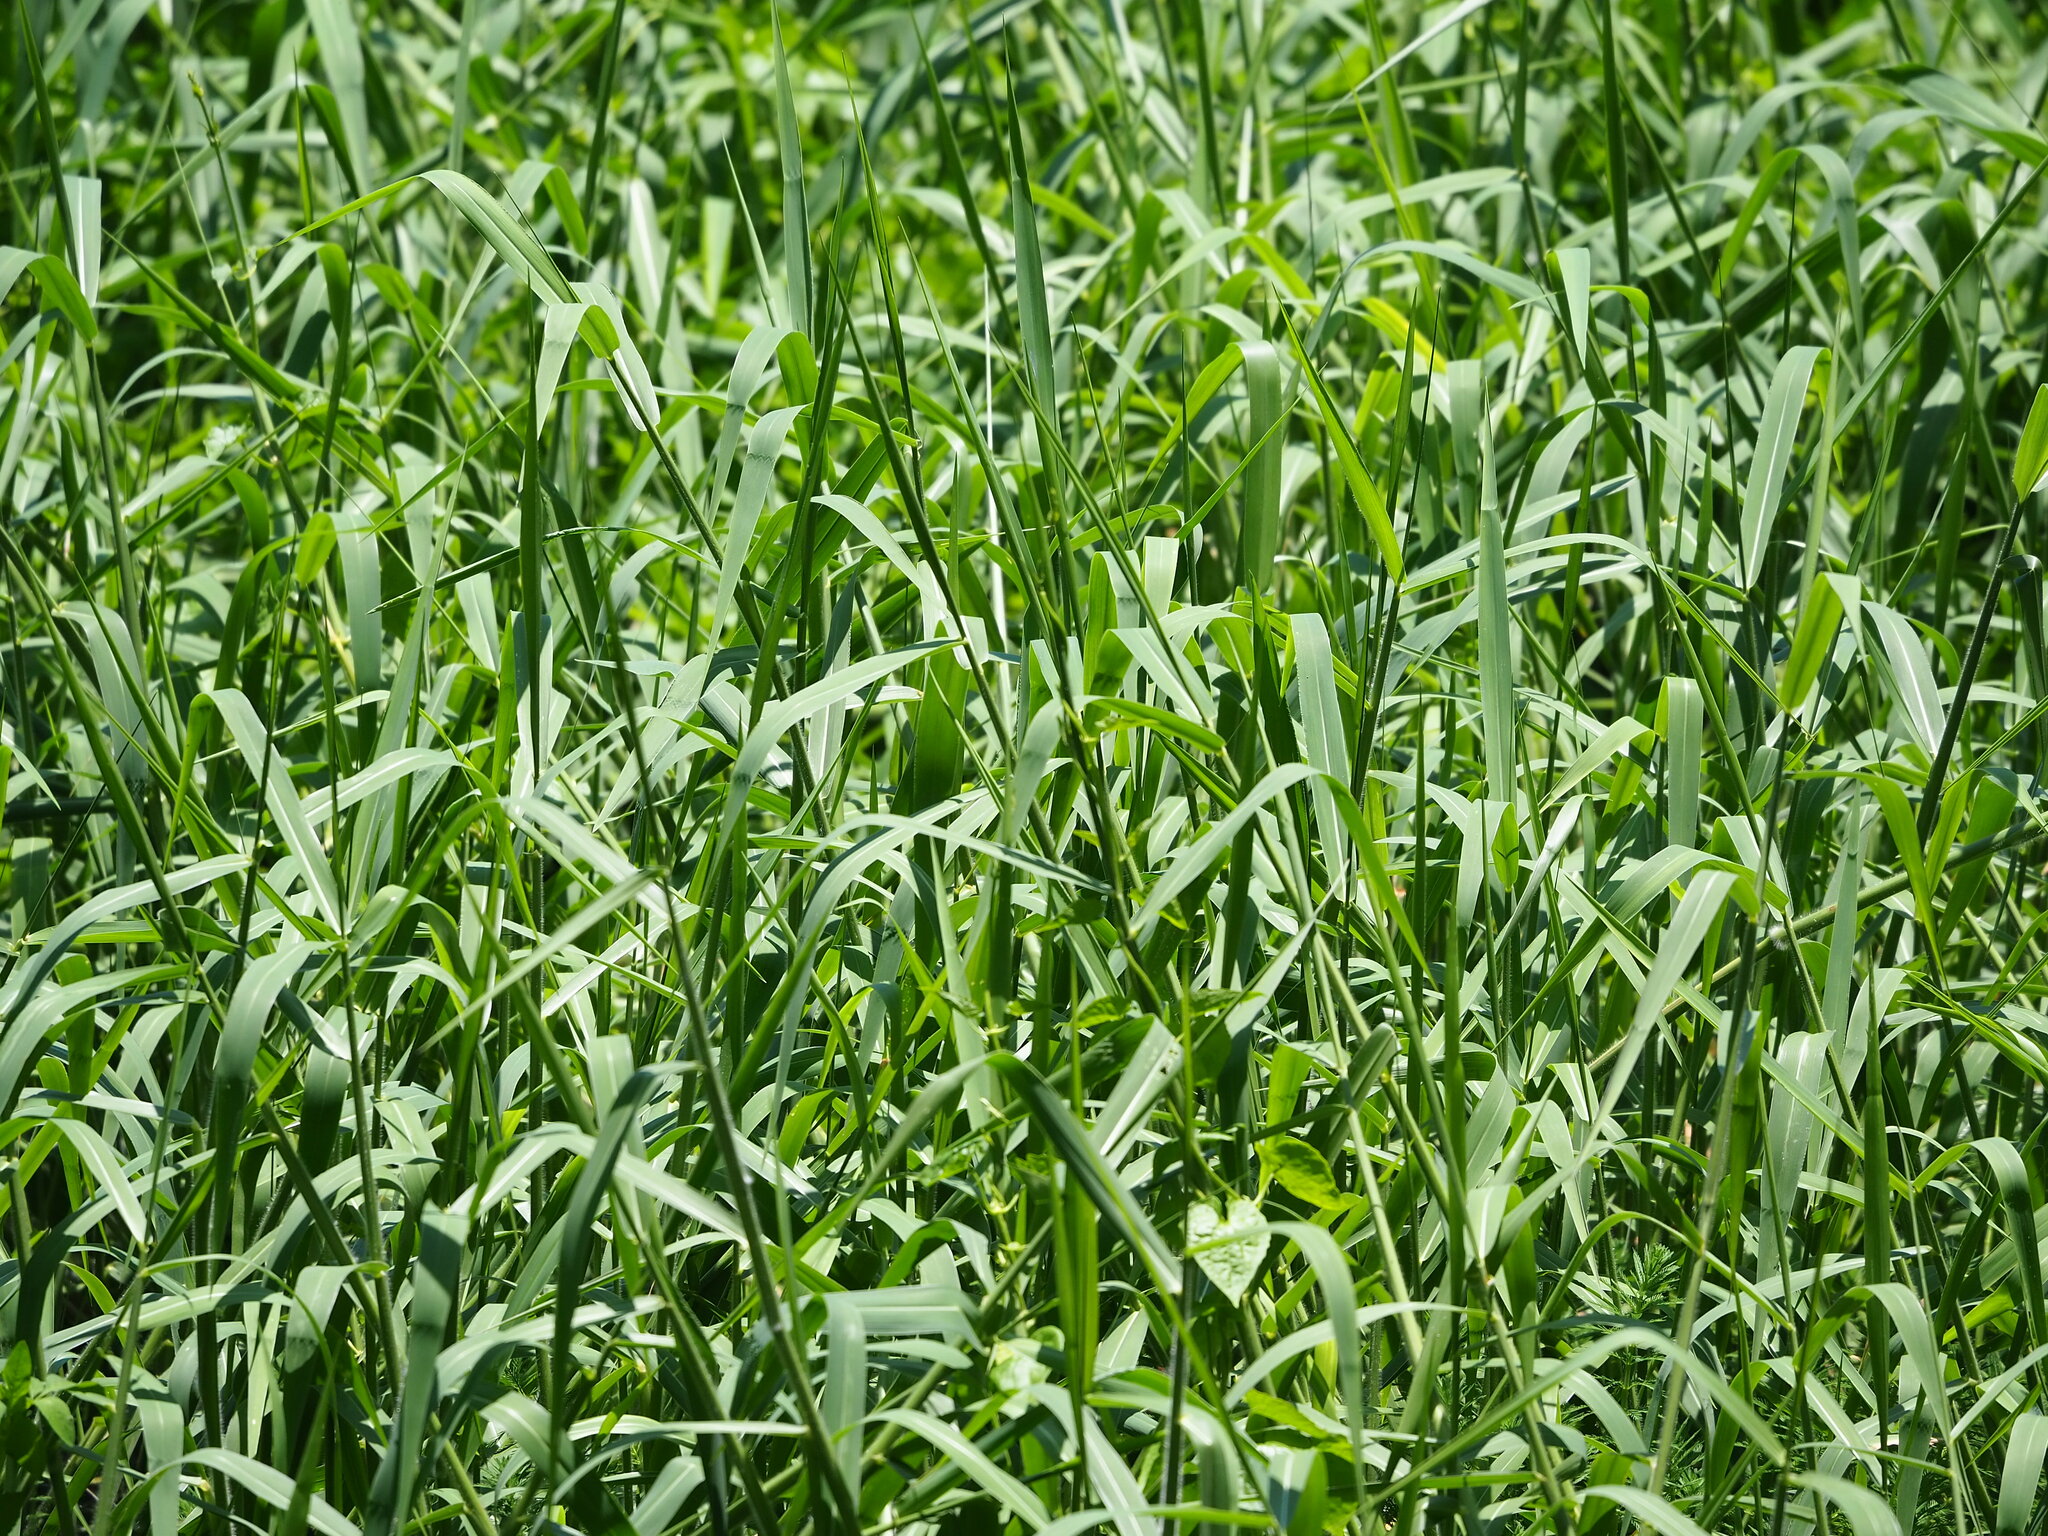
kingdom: Plantae
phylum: Tracheophyta
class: Liliopsida
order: Poales
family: Poaceae
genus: Urochloa
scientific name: Urochloa mutica
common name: Para grass
